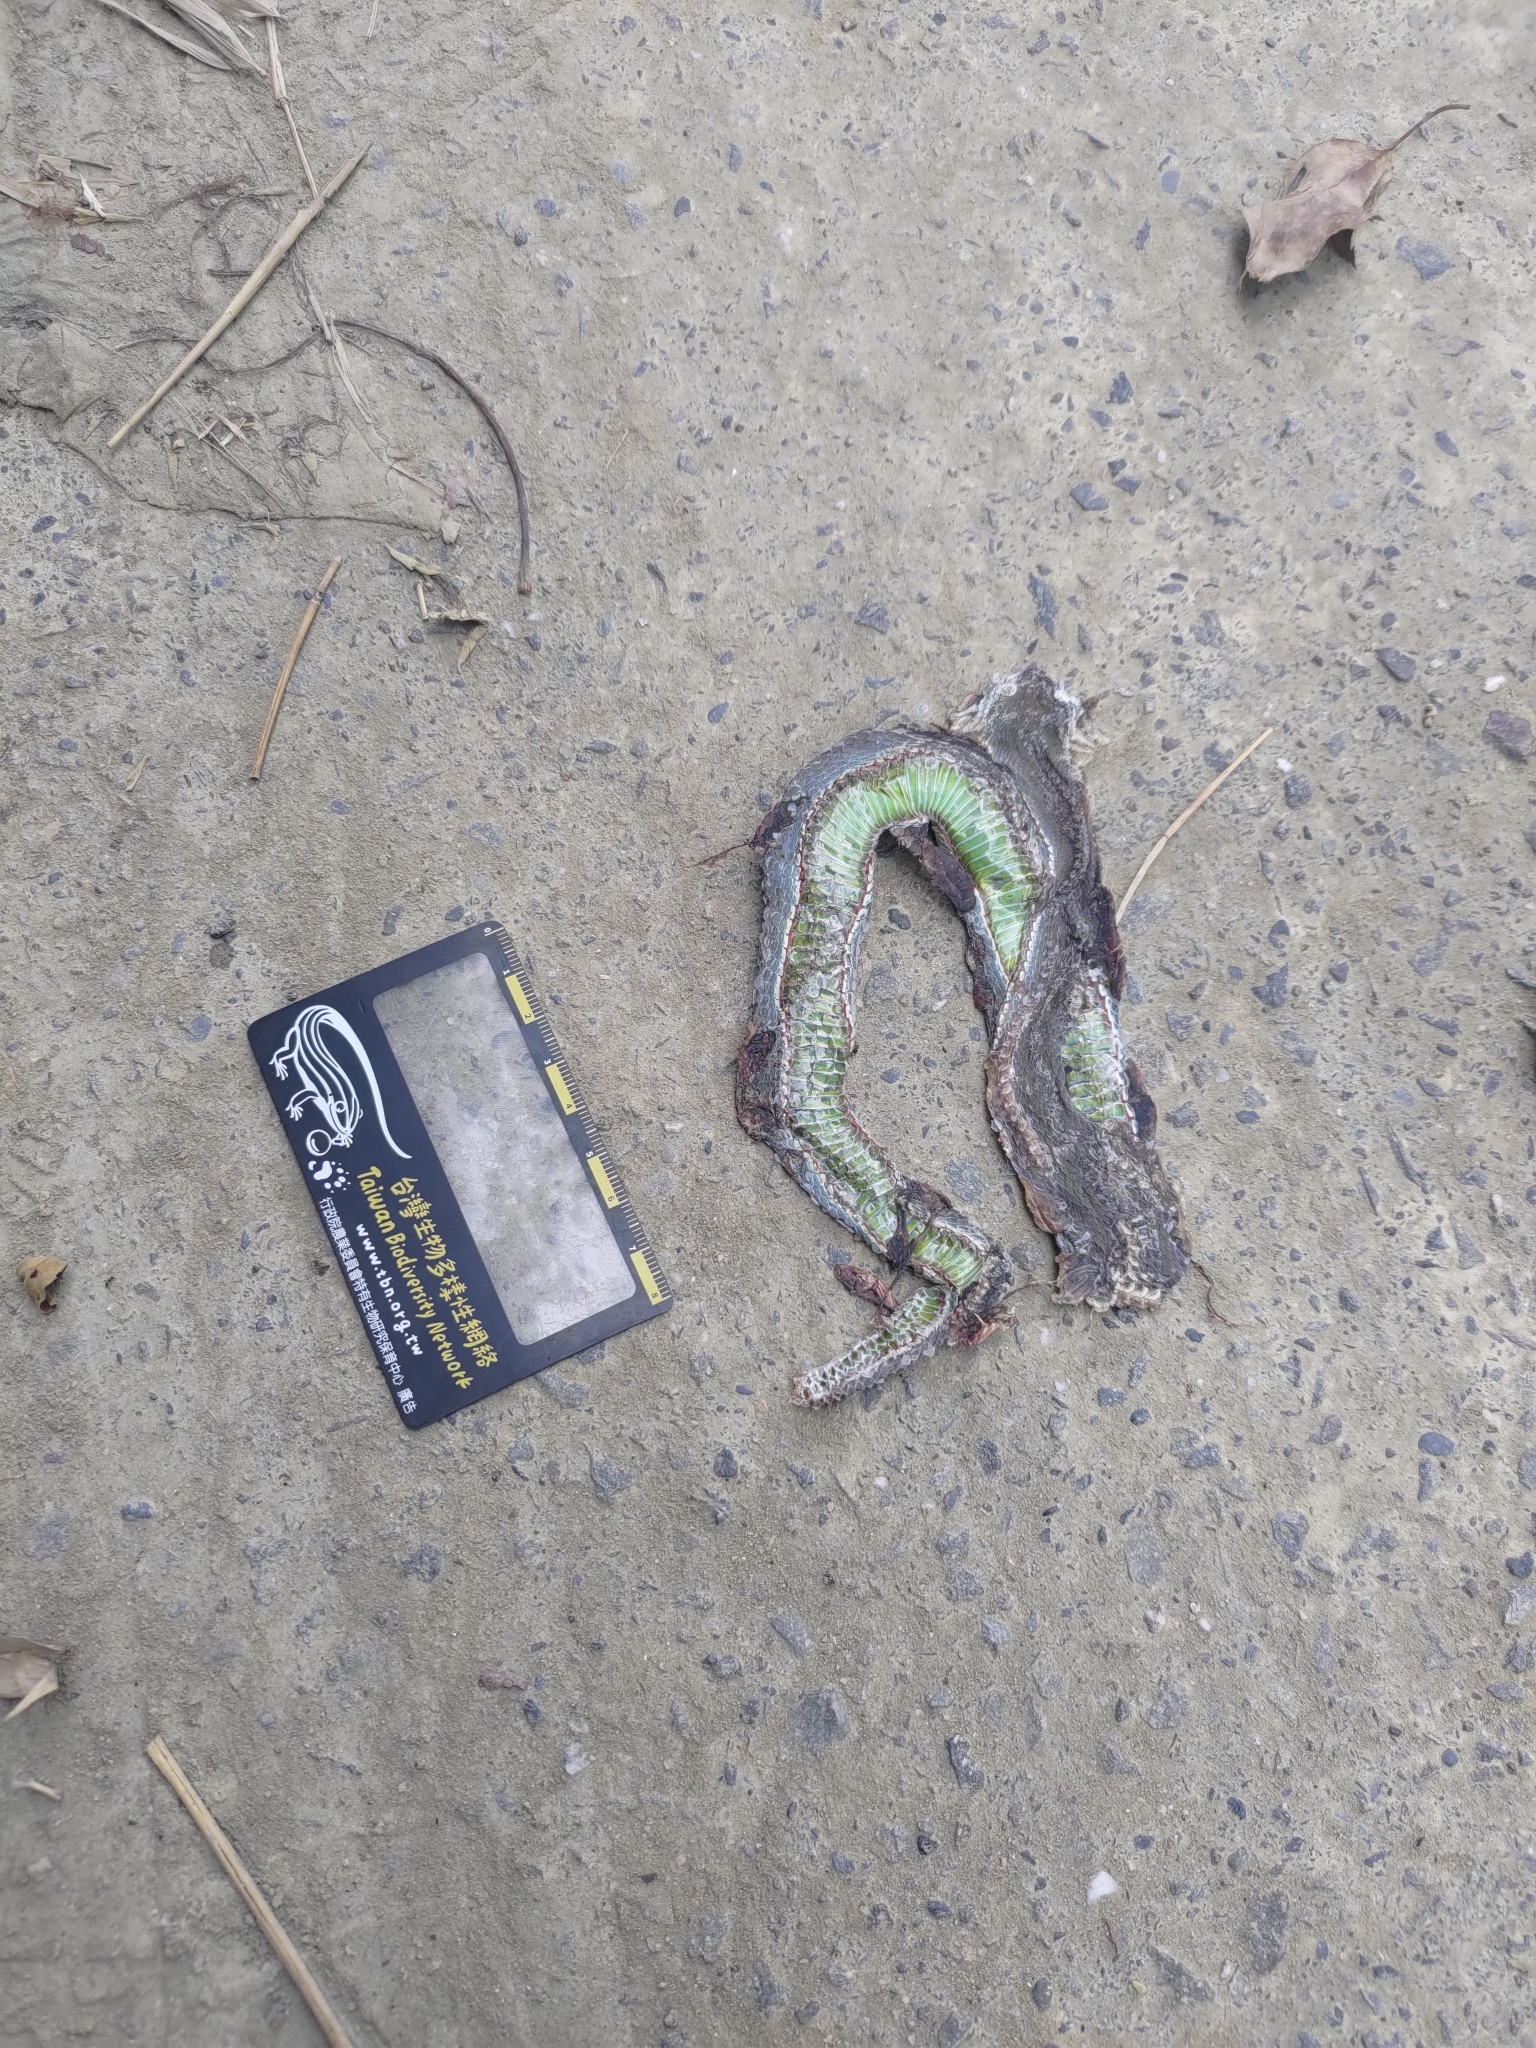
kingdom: Animalia
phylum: Chordata
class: Squamata
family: Viperidae
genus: Trimeresurus
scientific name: Trimeresurus stejnegeri
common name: Chen’s bamboo pit viper
